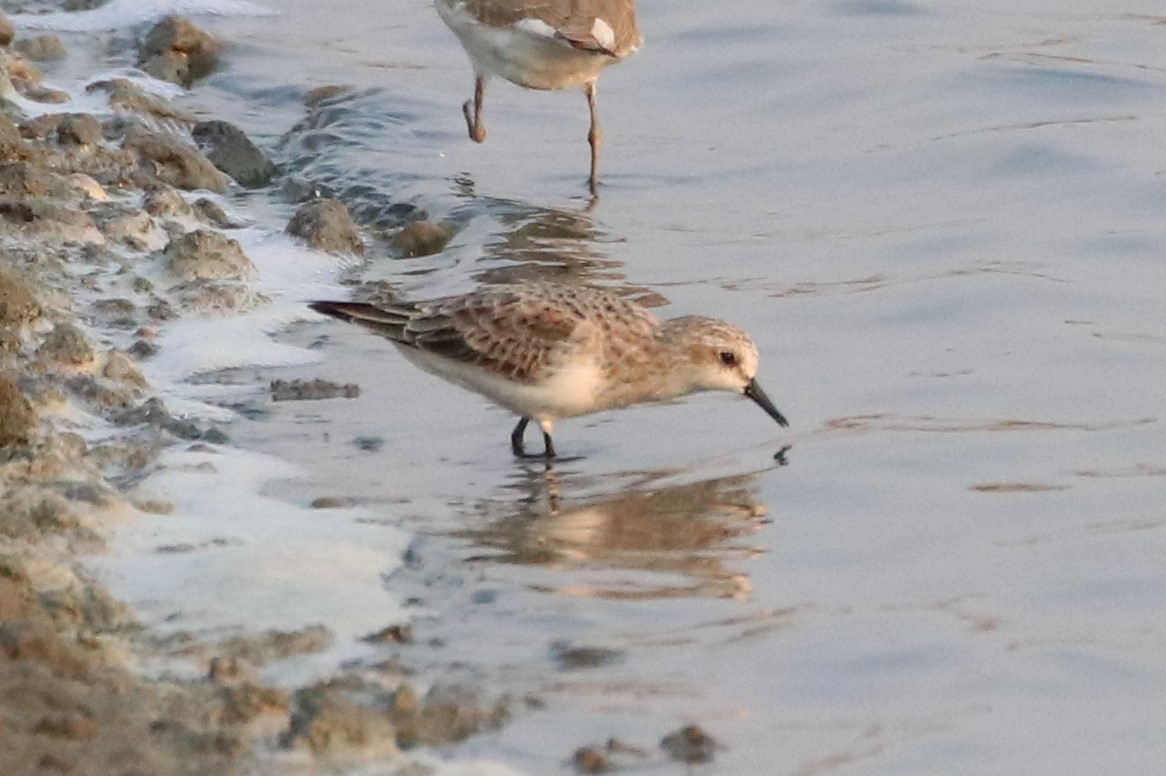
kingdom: Animalia
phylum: Chordata
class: Aves
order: Charadriiformes
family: Scolopacidae
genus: Calidris
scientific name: Calidris ruficollis
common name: Red-necked stint
